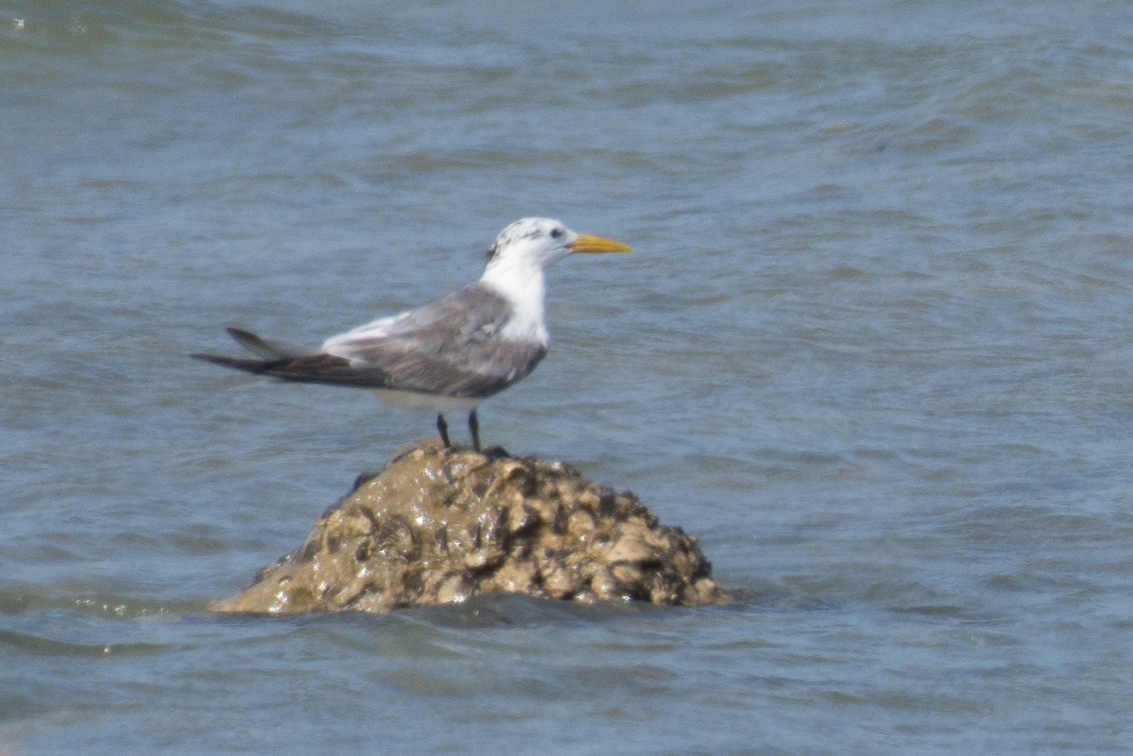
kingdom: Animalia
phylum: Chordata
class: Aves
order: Charadriiformes
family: Laridae
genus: Thalasseus
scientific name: Thalasseus bergii
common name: Greater crested tern
